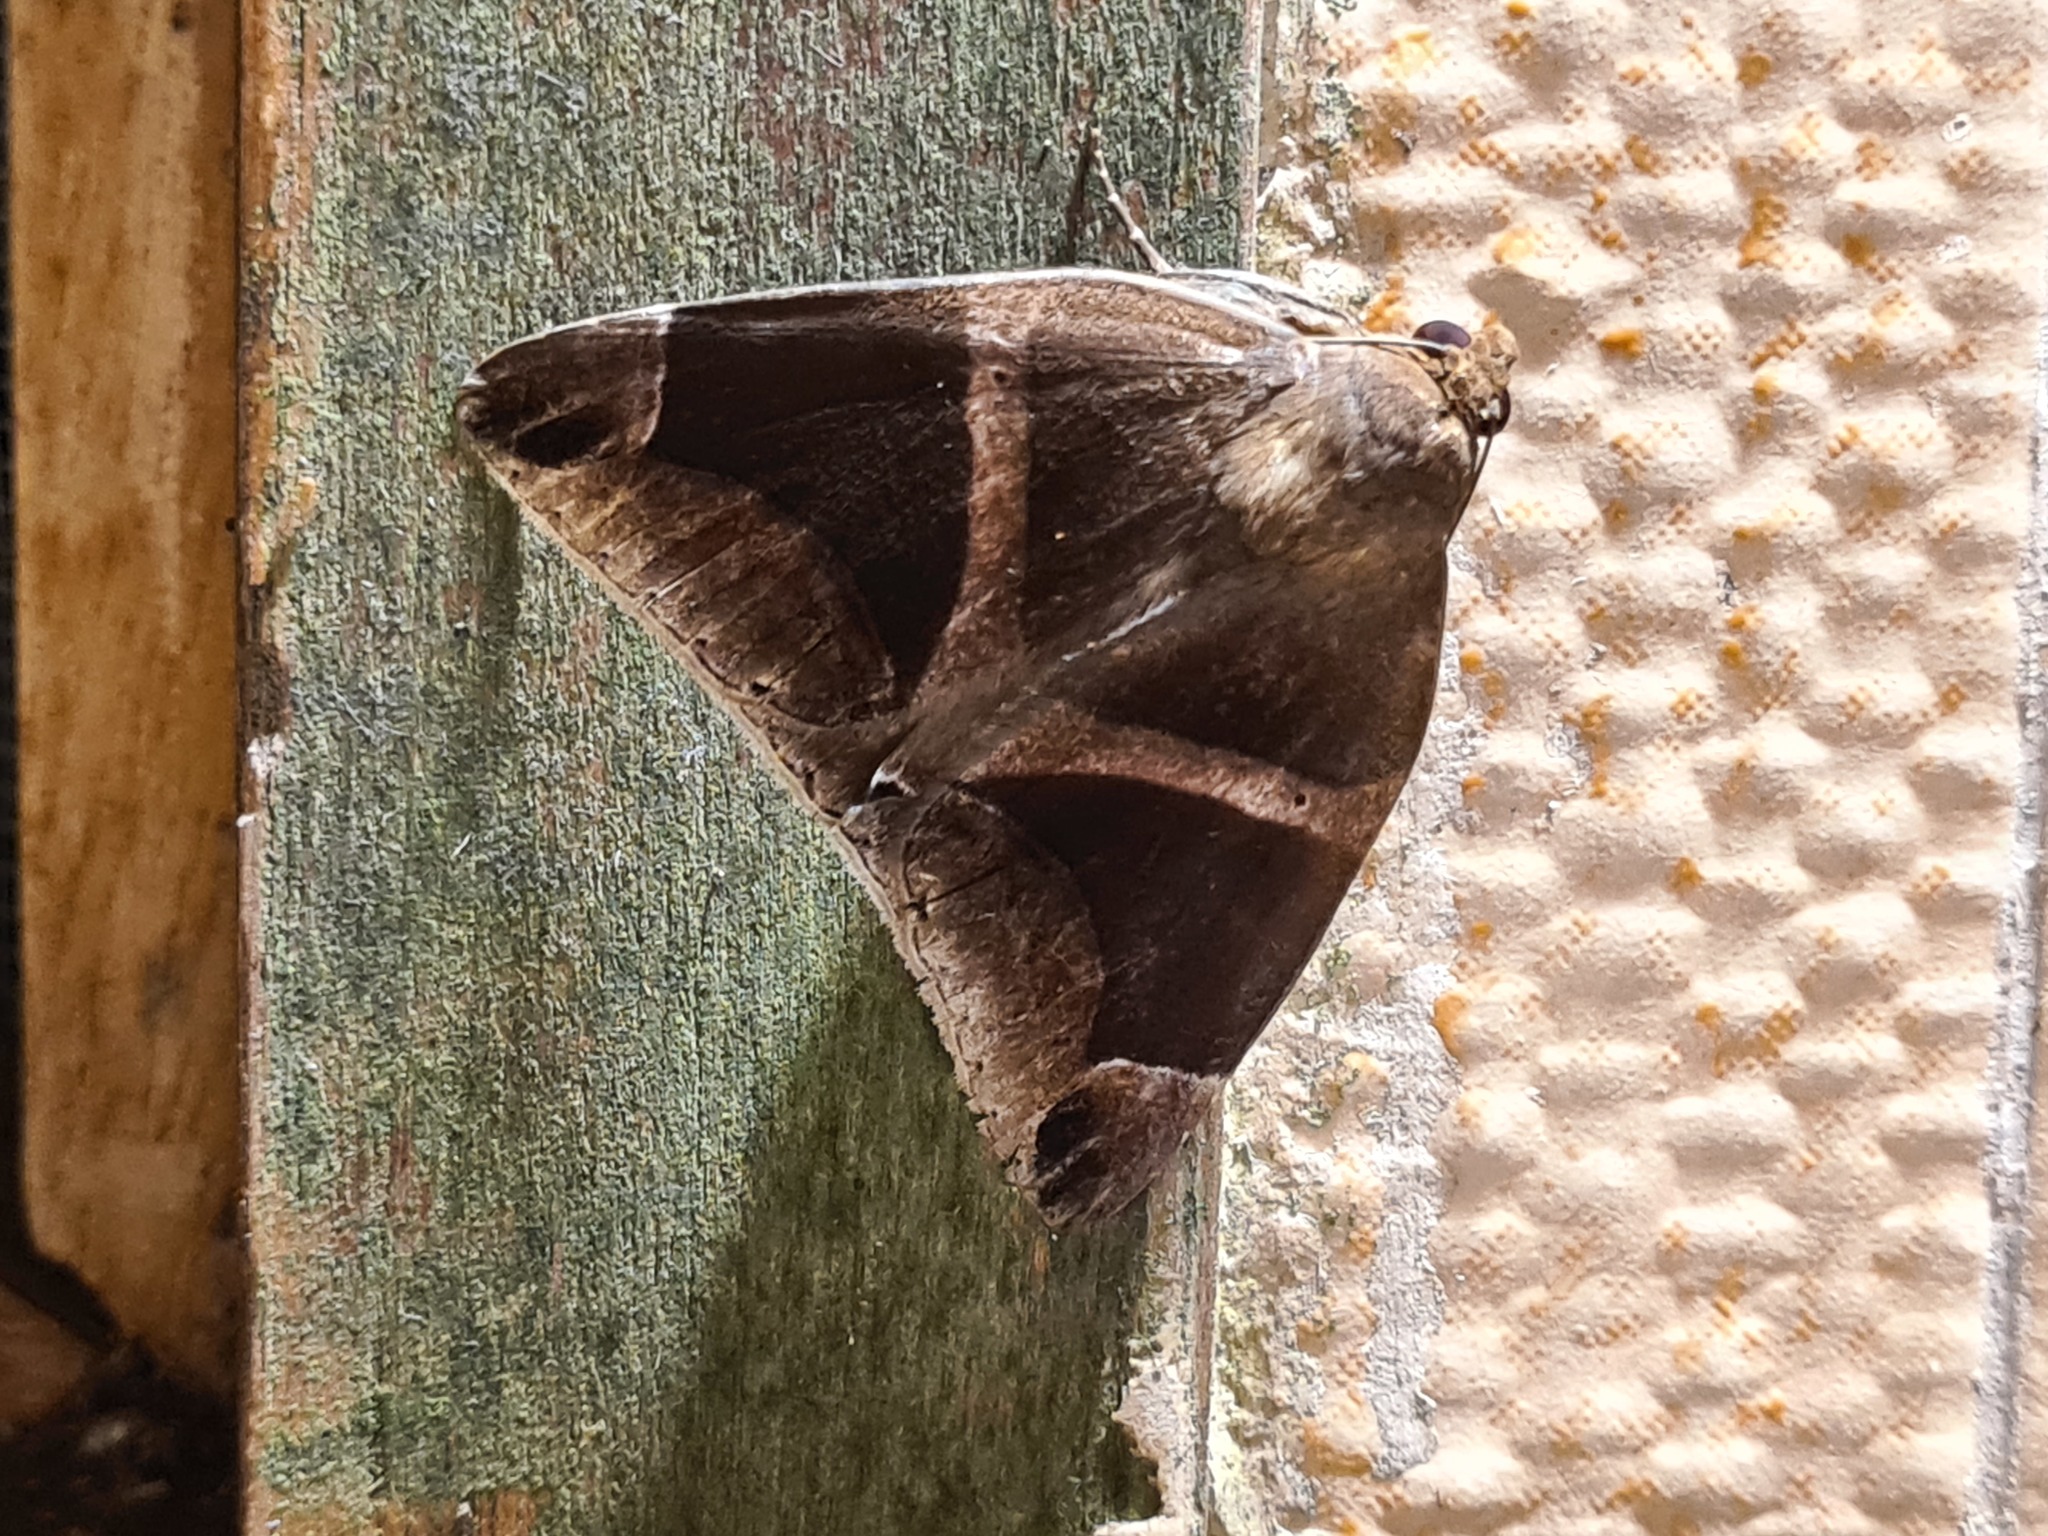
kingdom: Animalia
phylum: Arthropoda
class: Insecta
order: Lepidoptera
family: Erebidae
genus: Parallelia
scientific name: Parallelia expediens
